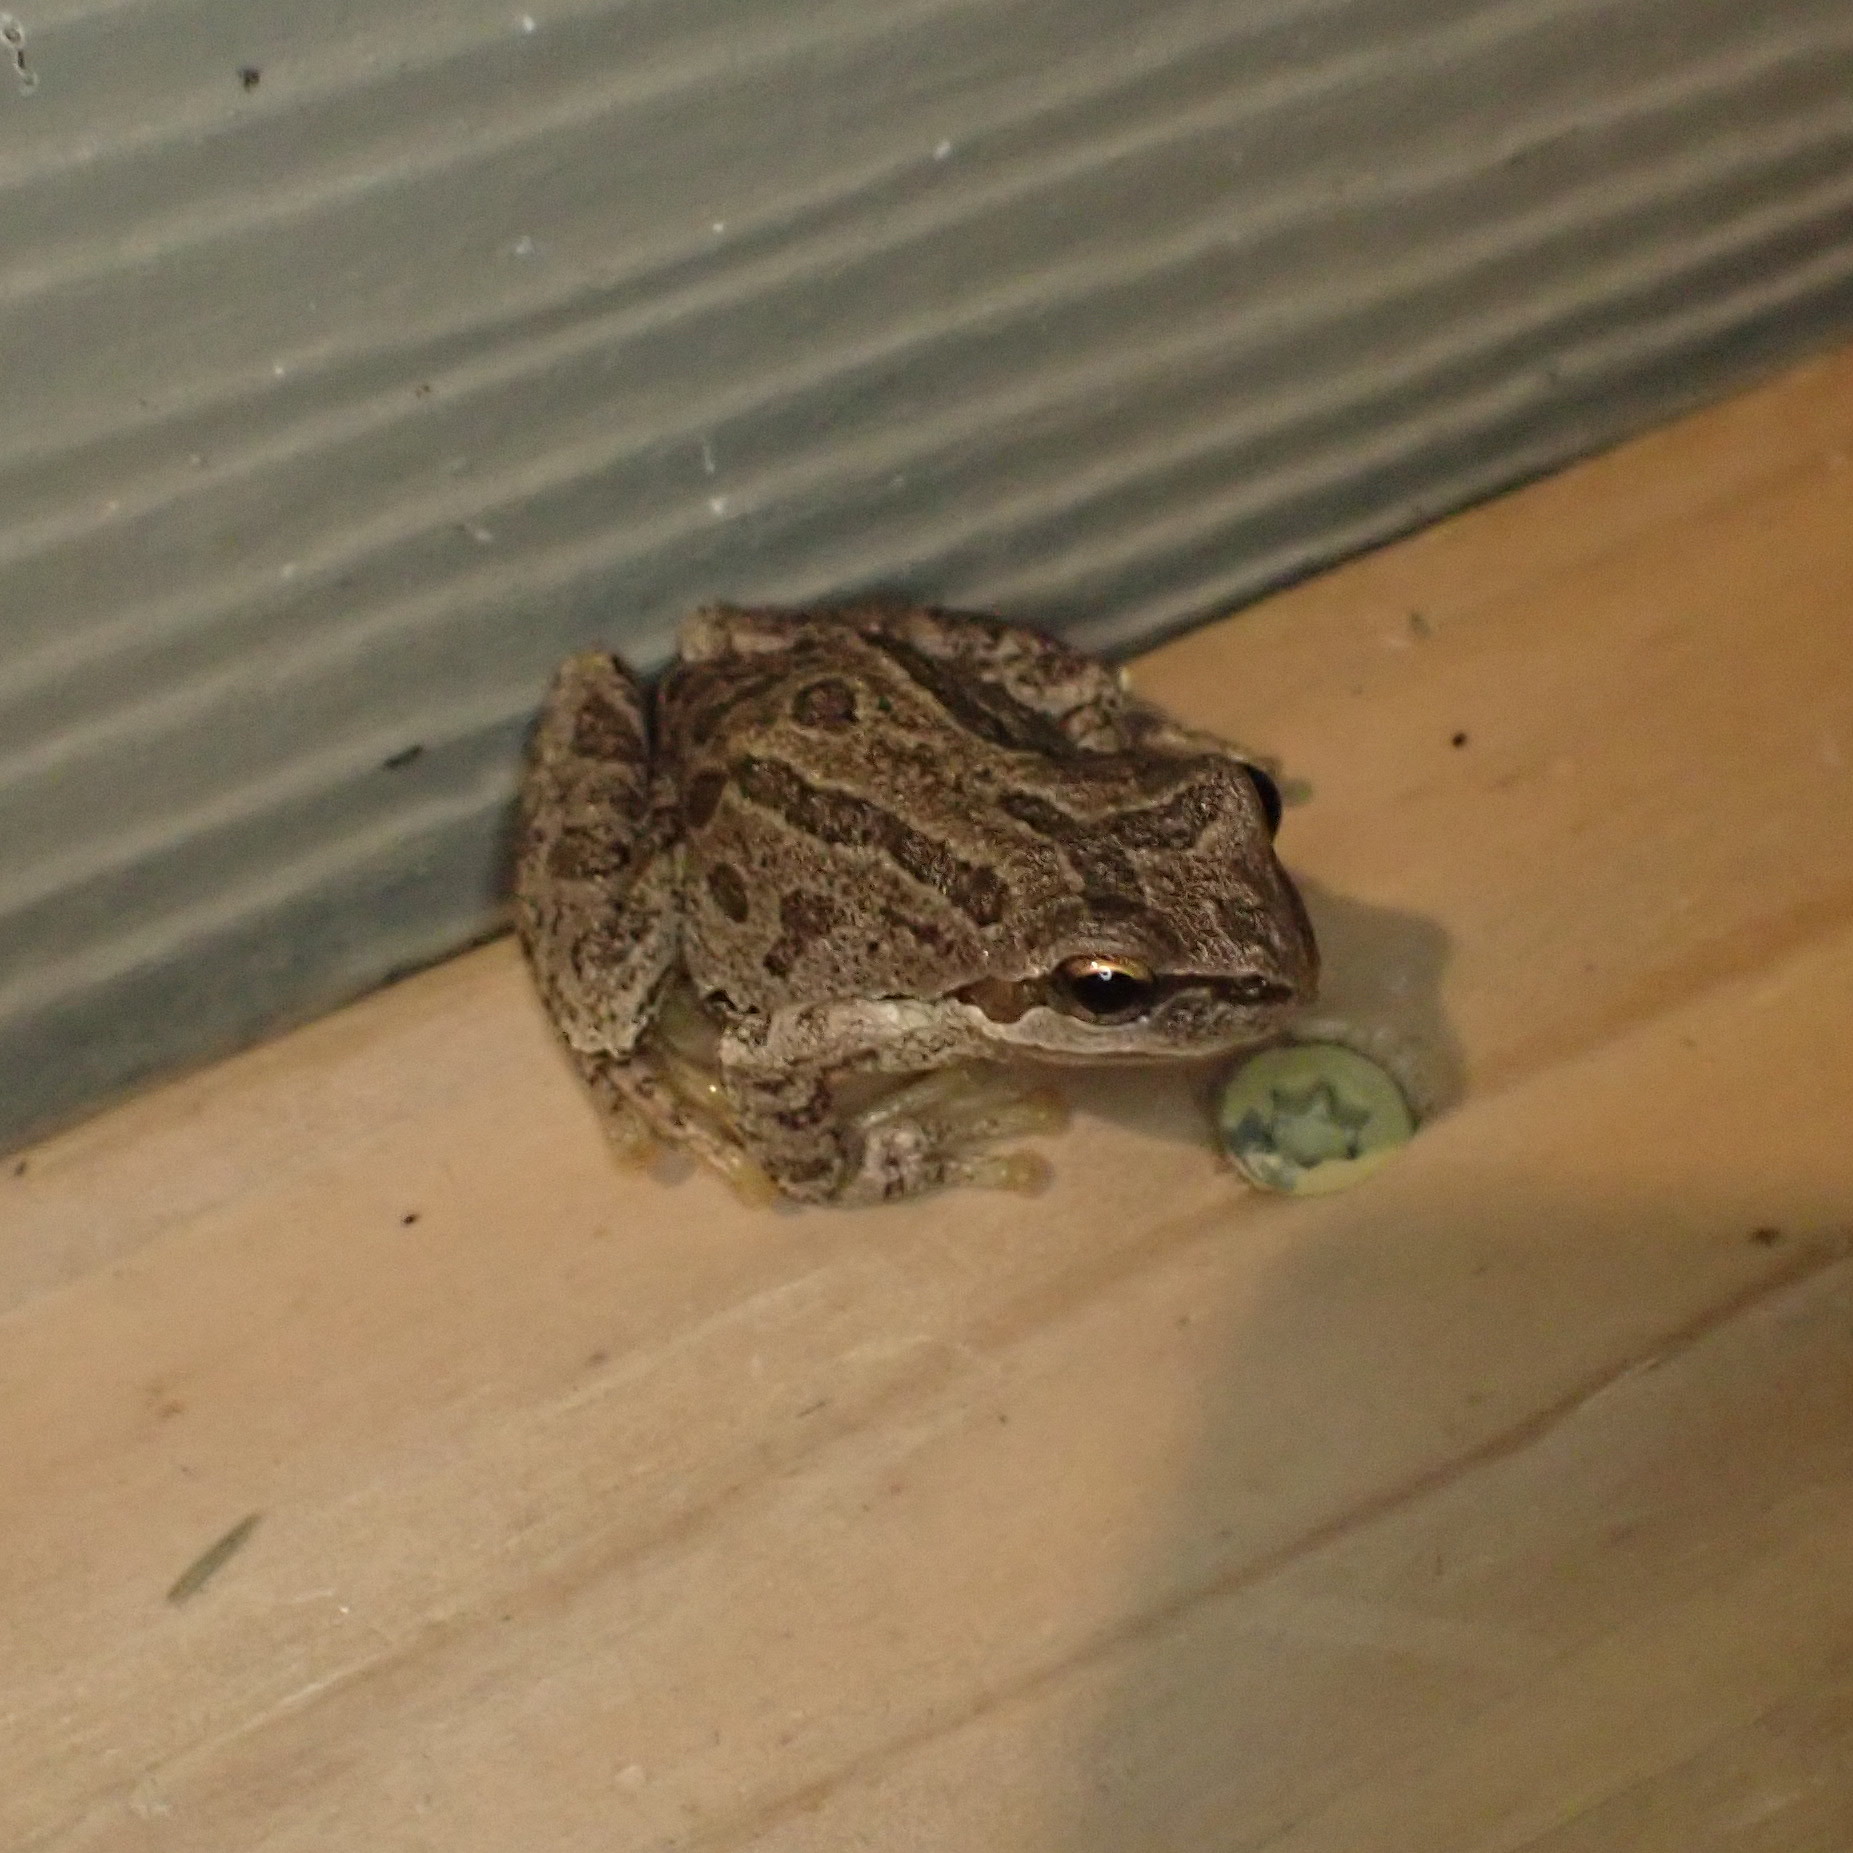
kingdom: Animalia
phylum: Chordata
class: Amphibia
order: Anura
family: Hylidae
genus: Pseudacris
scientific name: Pseudacris regilla
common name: Pacific chorus frog
